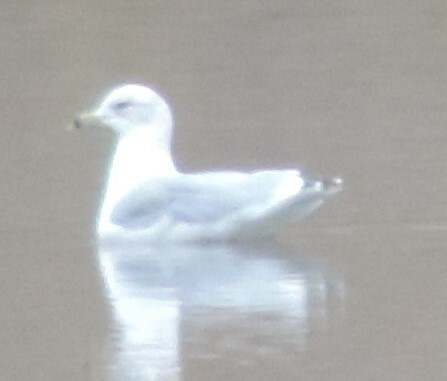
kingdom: Animalia
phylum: Chordata
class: Aves
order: Charadriiformes
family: Laridae
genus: Larus
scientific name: Larus delawarensis
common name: Ring-billed gull
